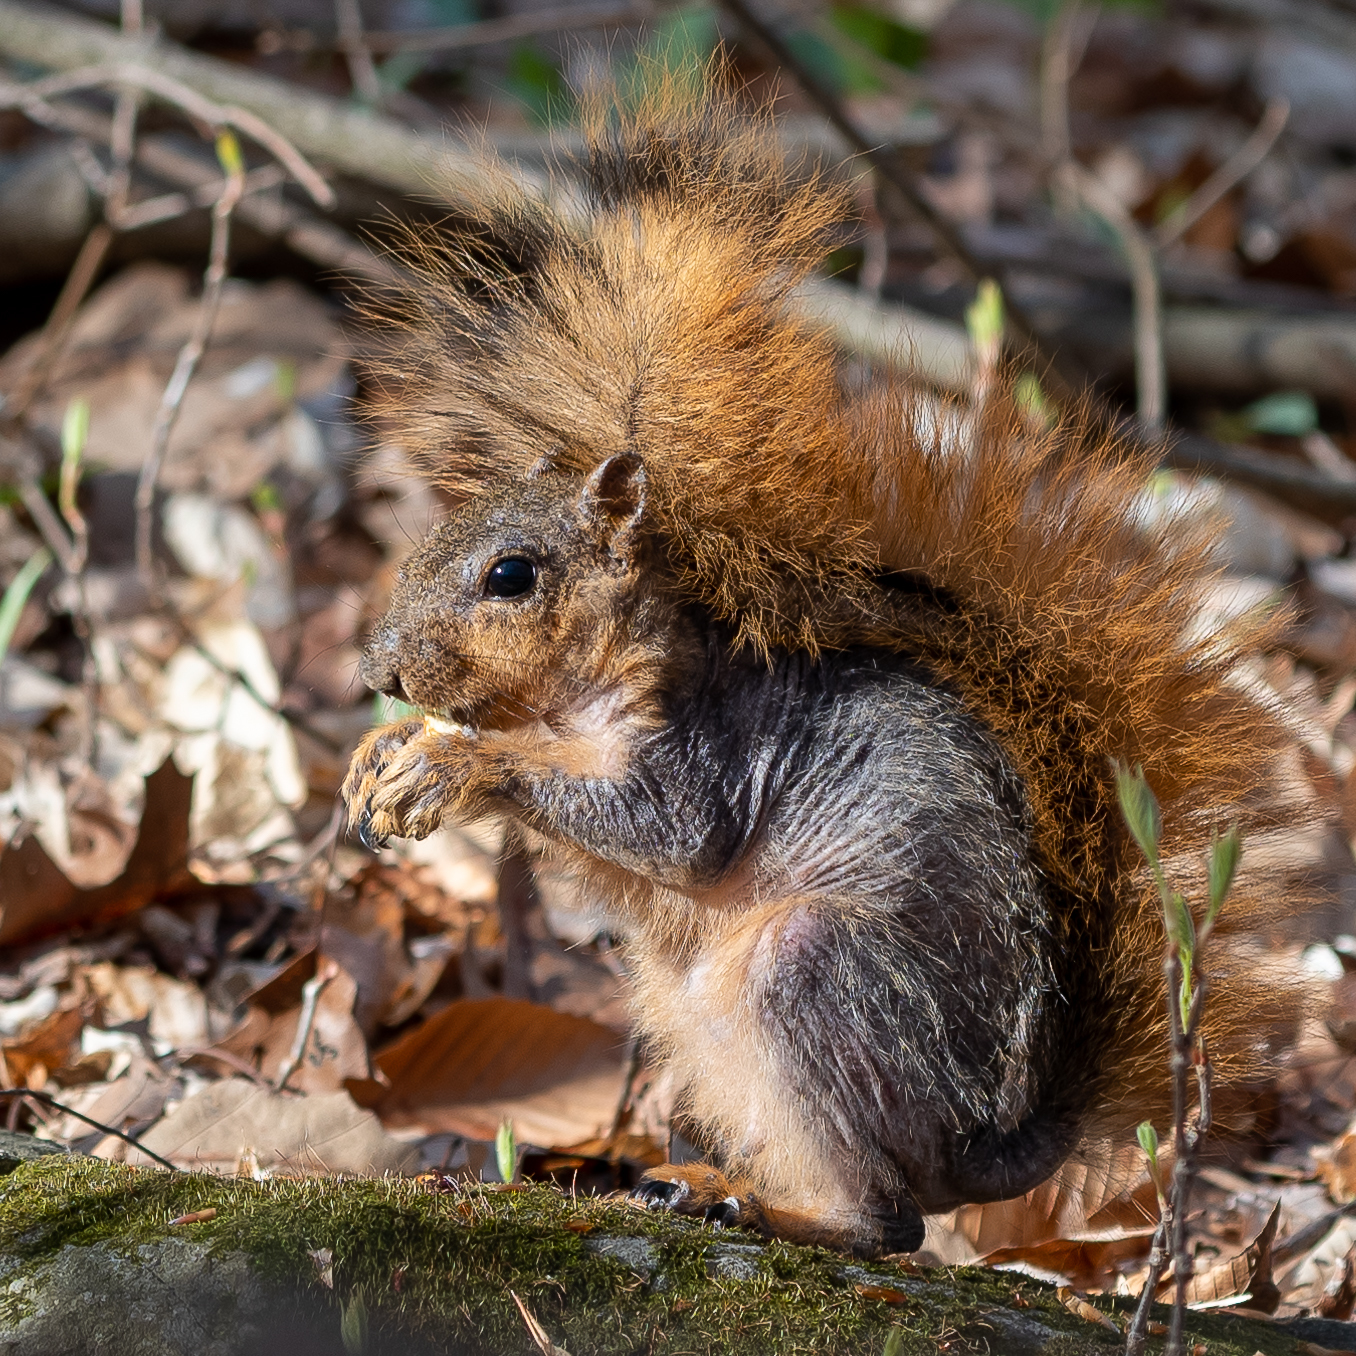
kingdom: Animalia
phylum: Chordata
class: Mammalia
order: Rodentia
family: Sciuridae
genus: Sciurus
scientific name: Sciurus niger
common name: Fox squirrel
